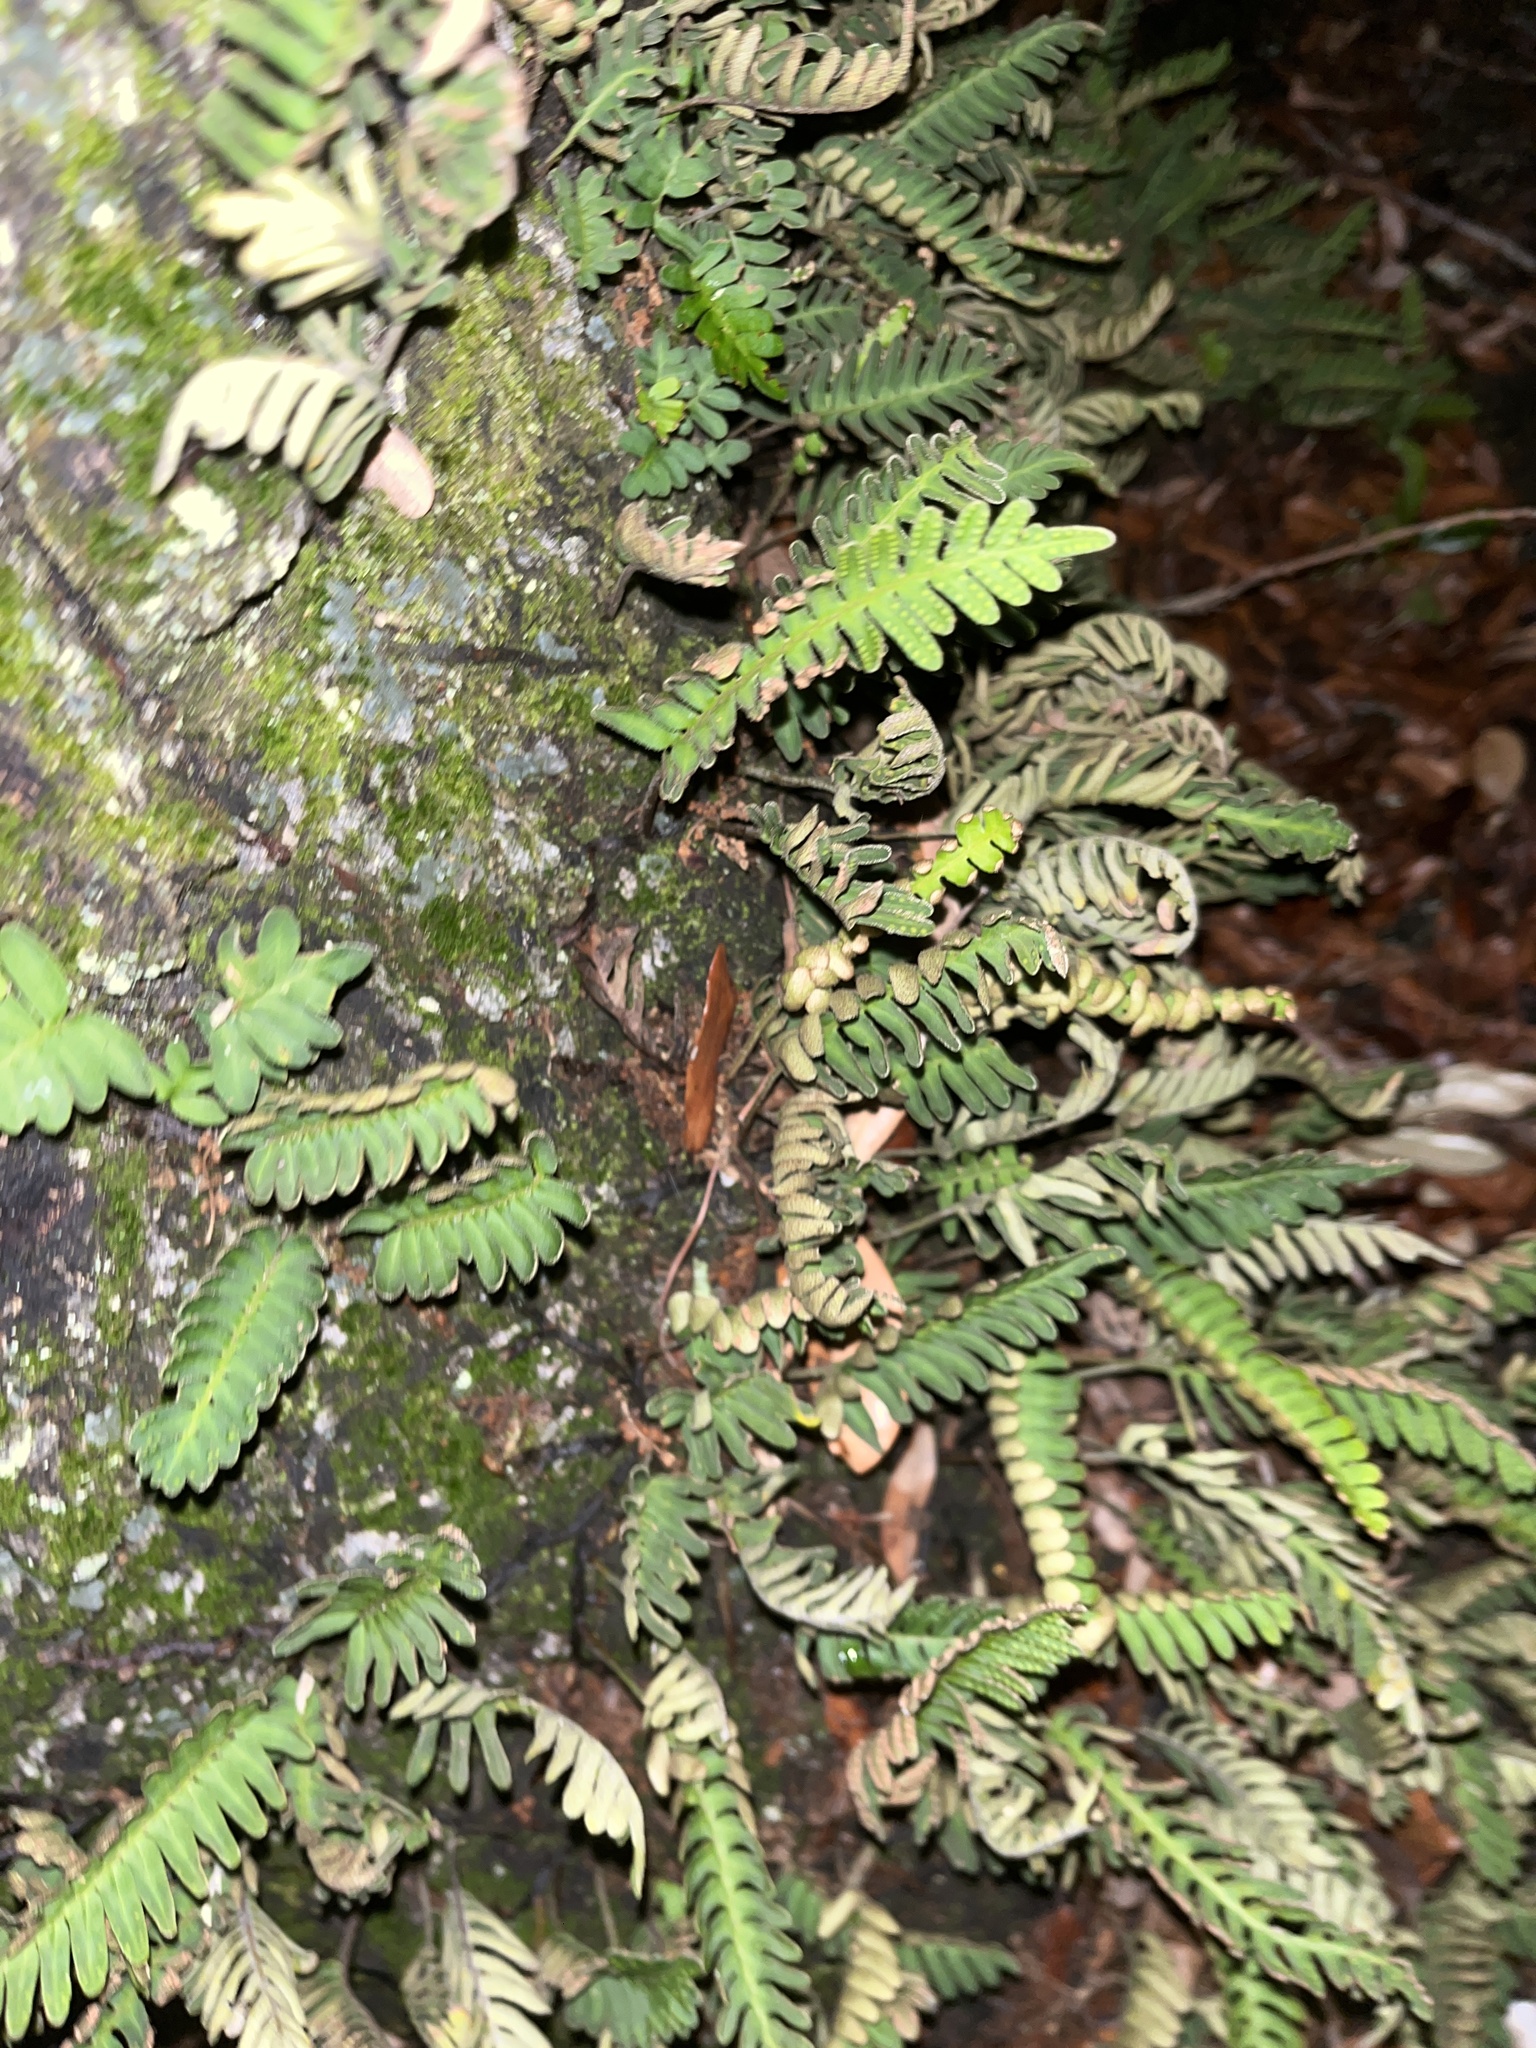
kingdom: Plantae
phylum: Tracheophyta
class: Polypodiopsida
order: Polypodiales
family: Polypodiaceae
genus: Pleopeltis
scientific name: Pleopeltis michauxiana
